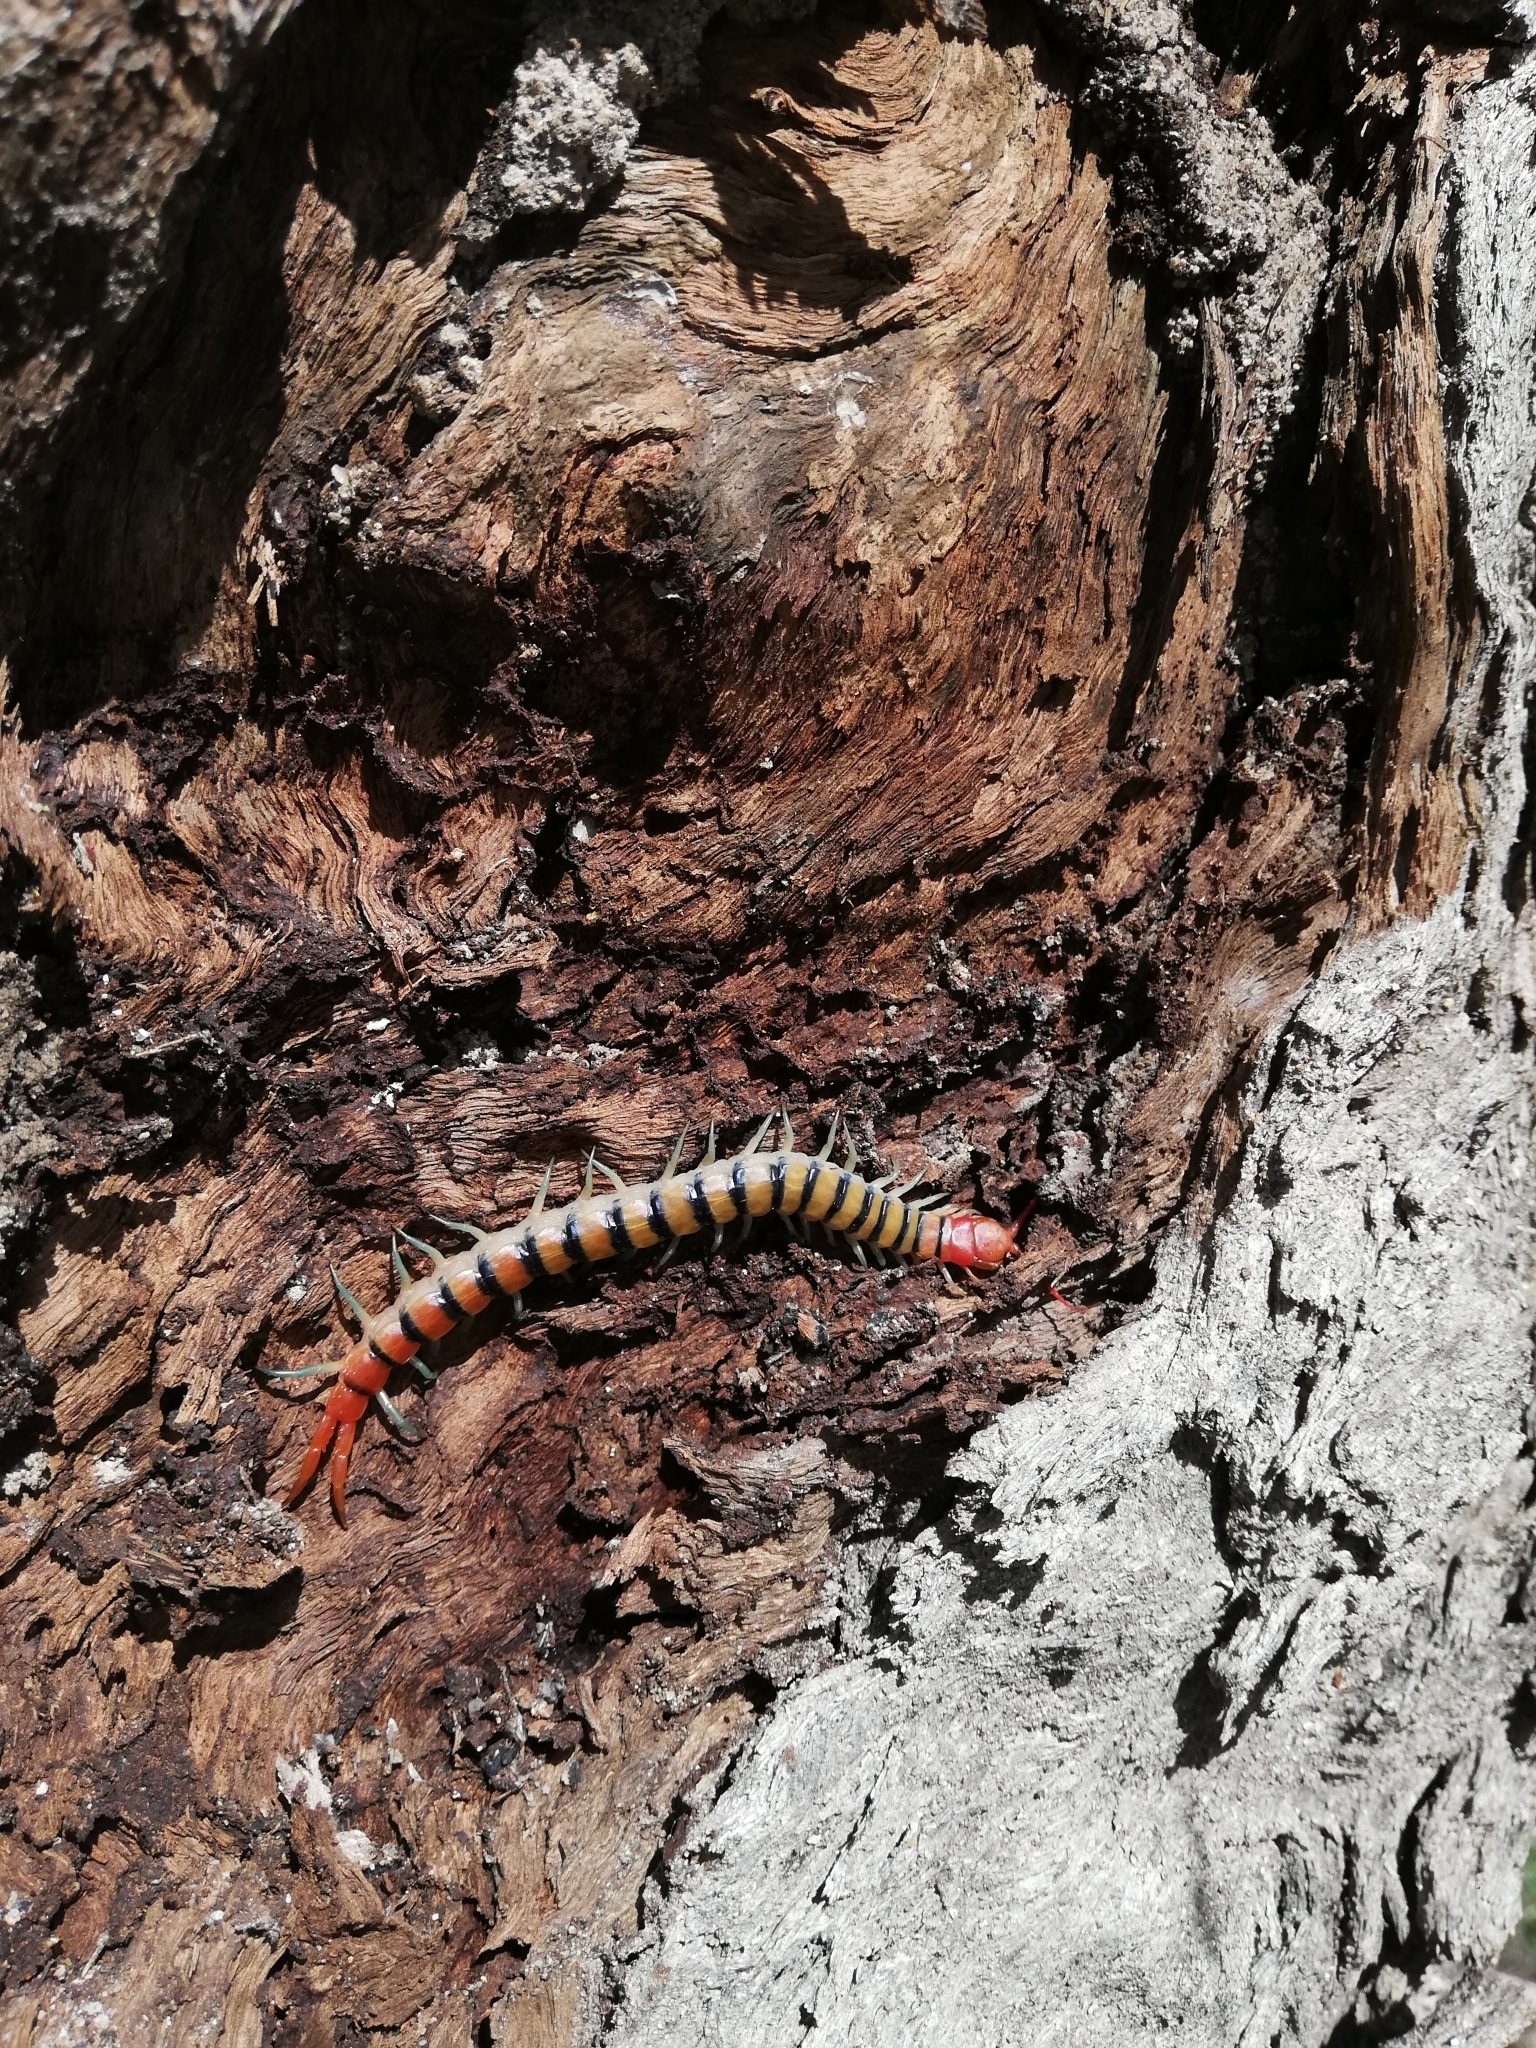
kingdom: Animalia
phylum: Arthropoda
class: Chilopoda
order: Scolopendromorpha
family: Scolopendridae
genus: Scolopendra
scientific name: Scolopendra morsitans
